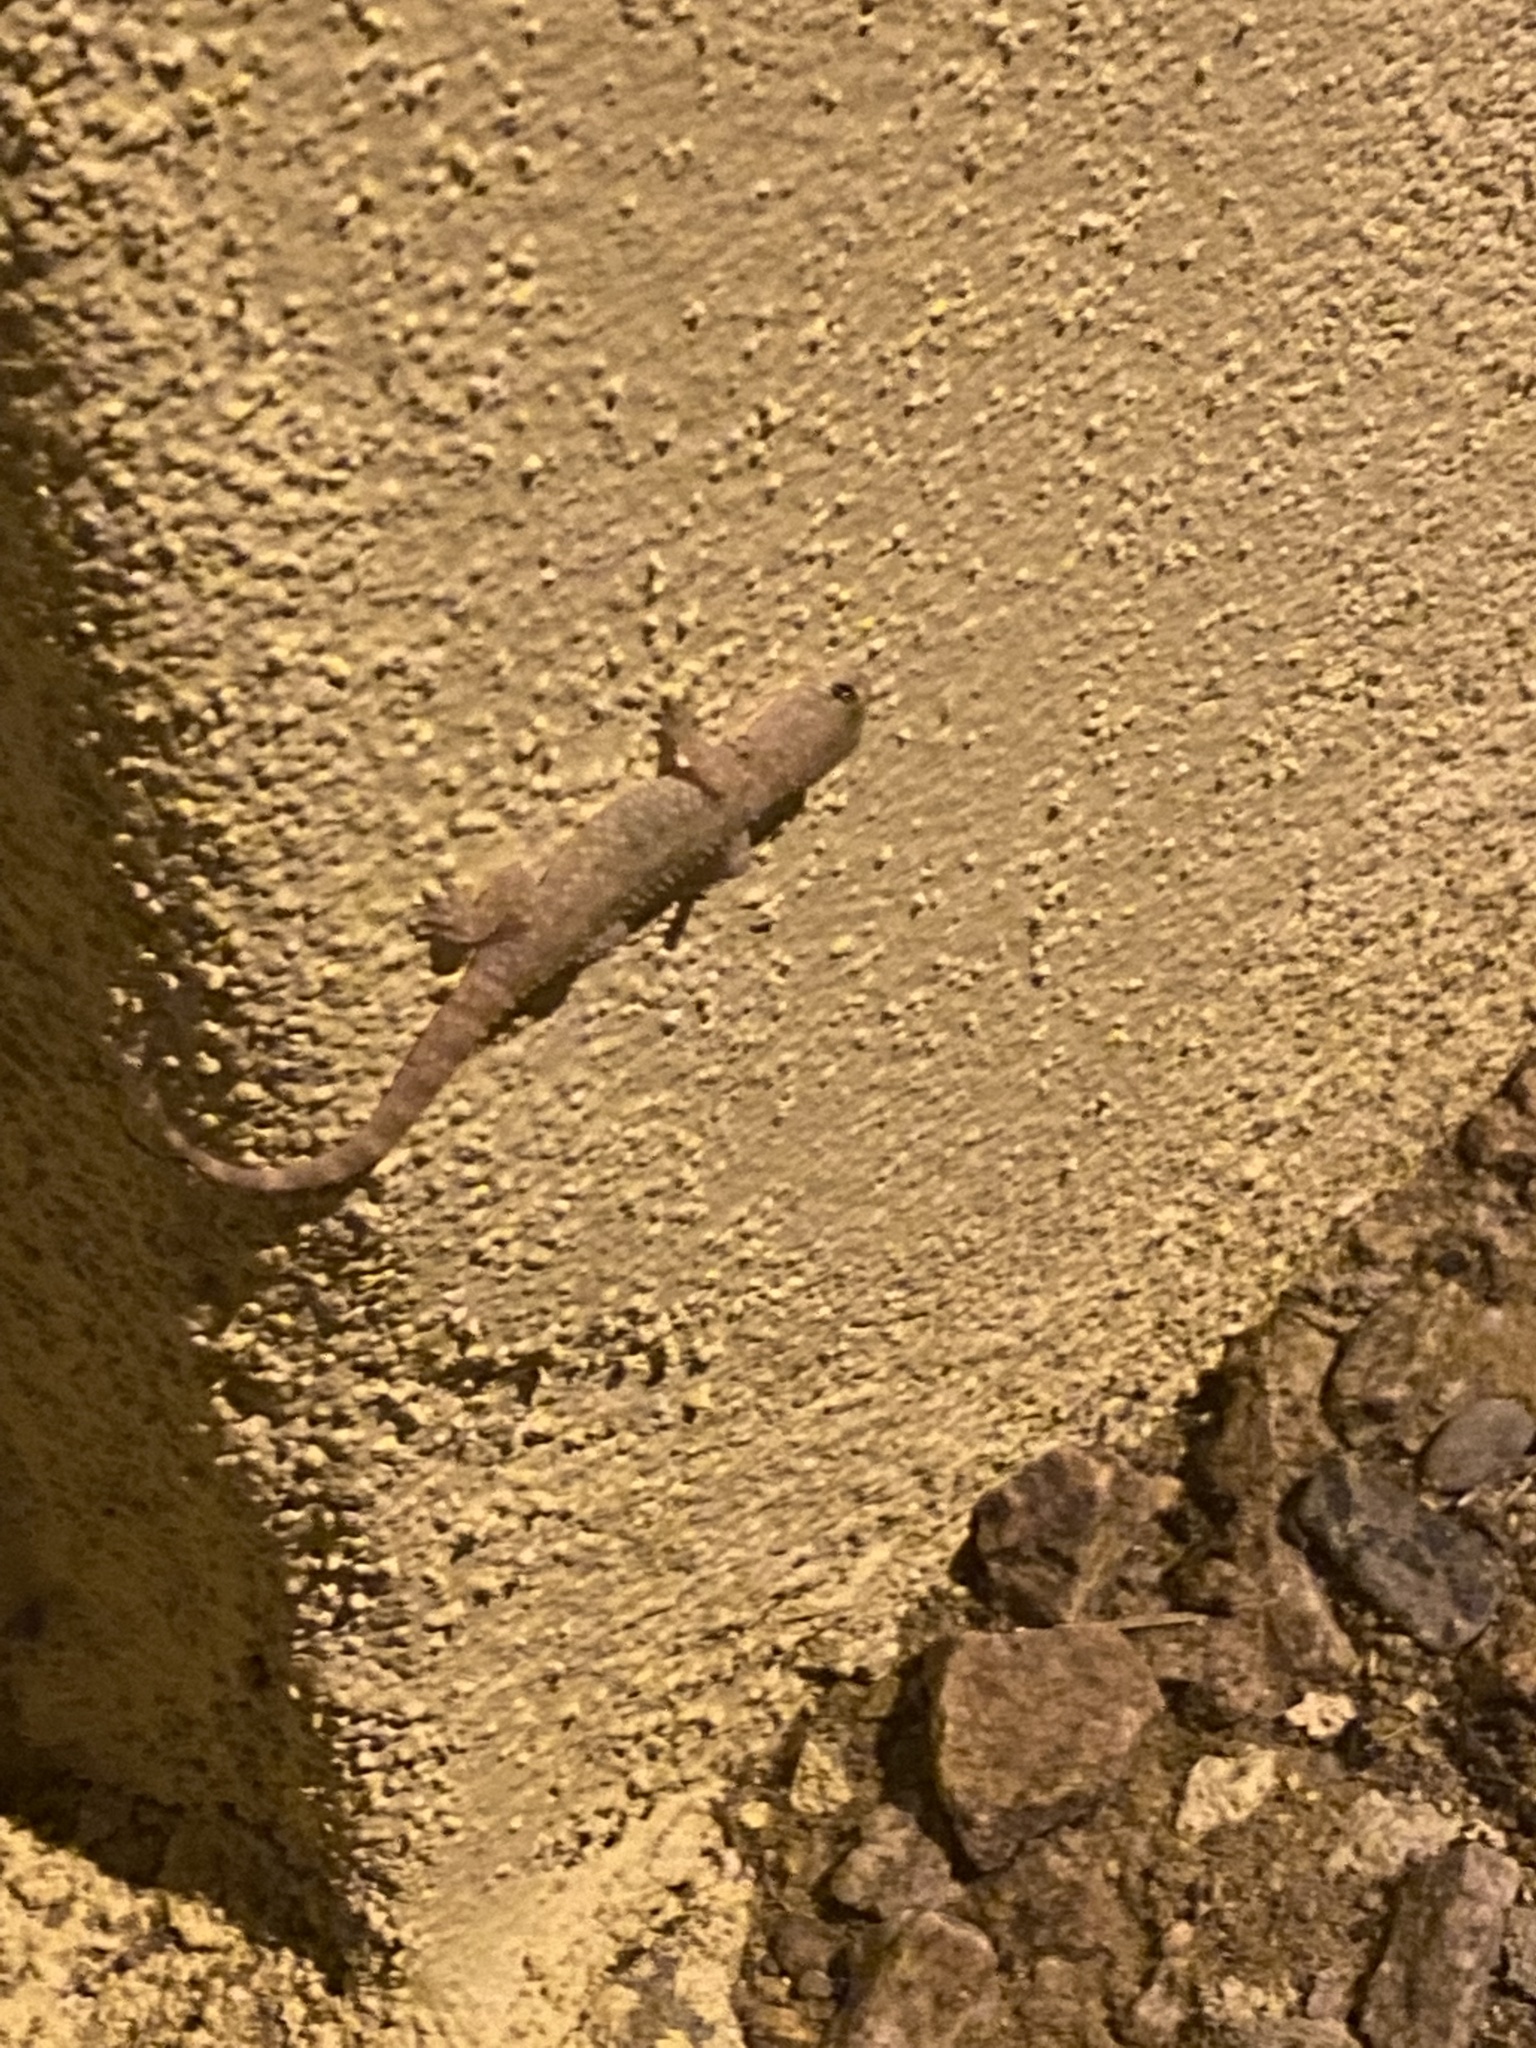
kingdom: Animalia
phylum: Chordata
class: Squamata
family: Gekkonidae
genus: Hemidactylus
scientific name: Hemidactylus turcicus
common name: Turkish gecko
